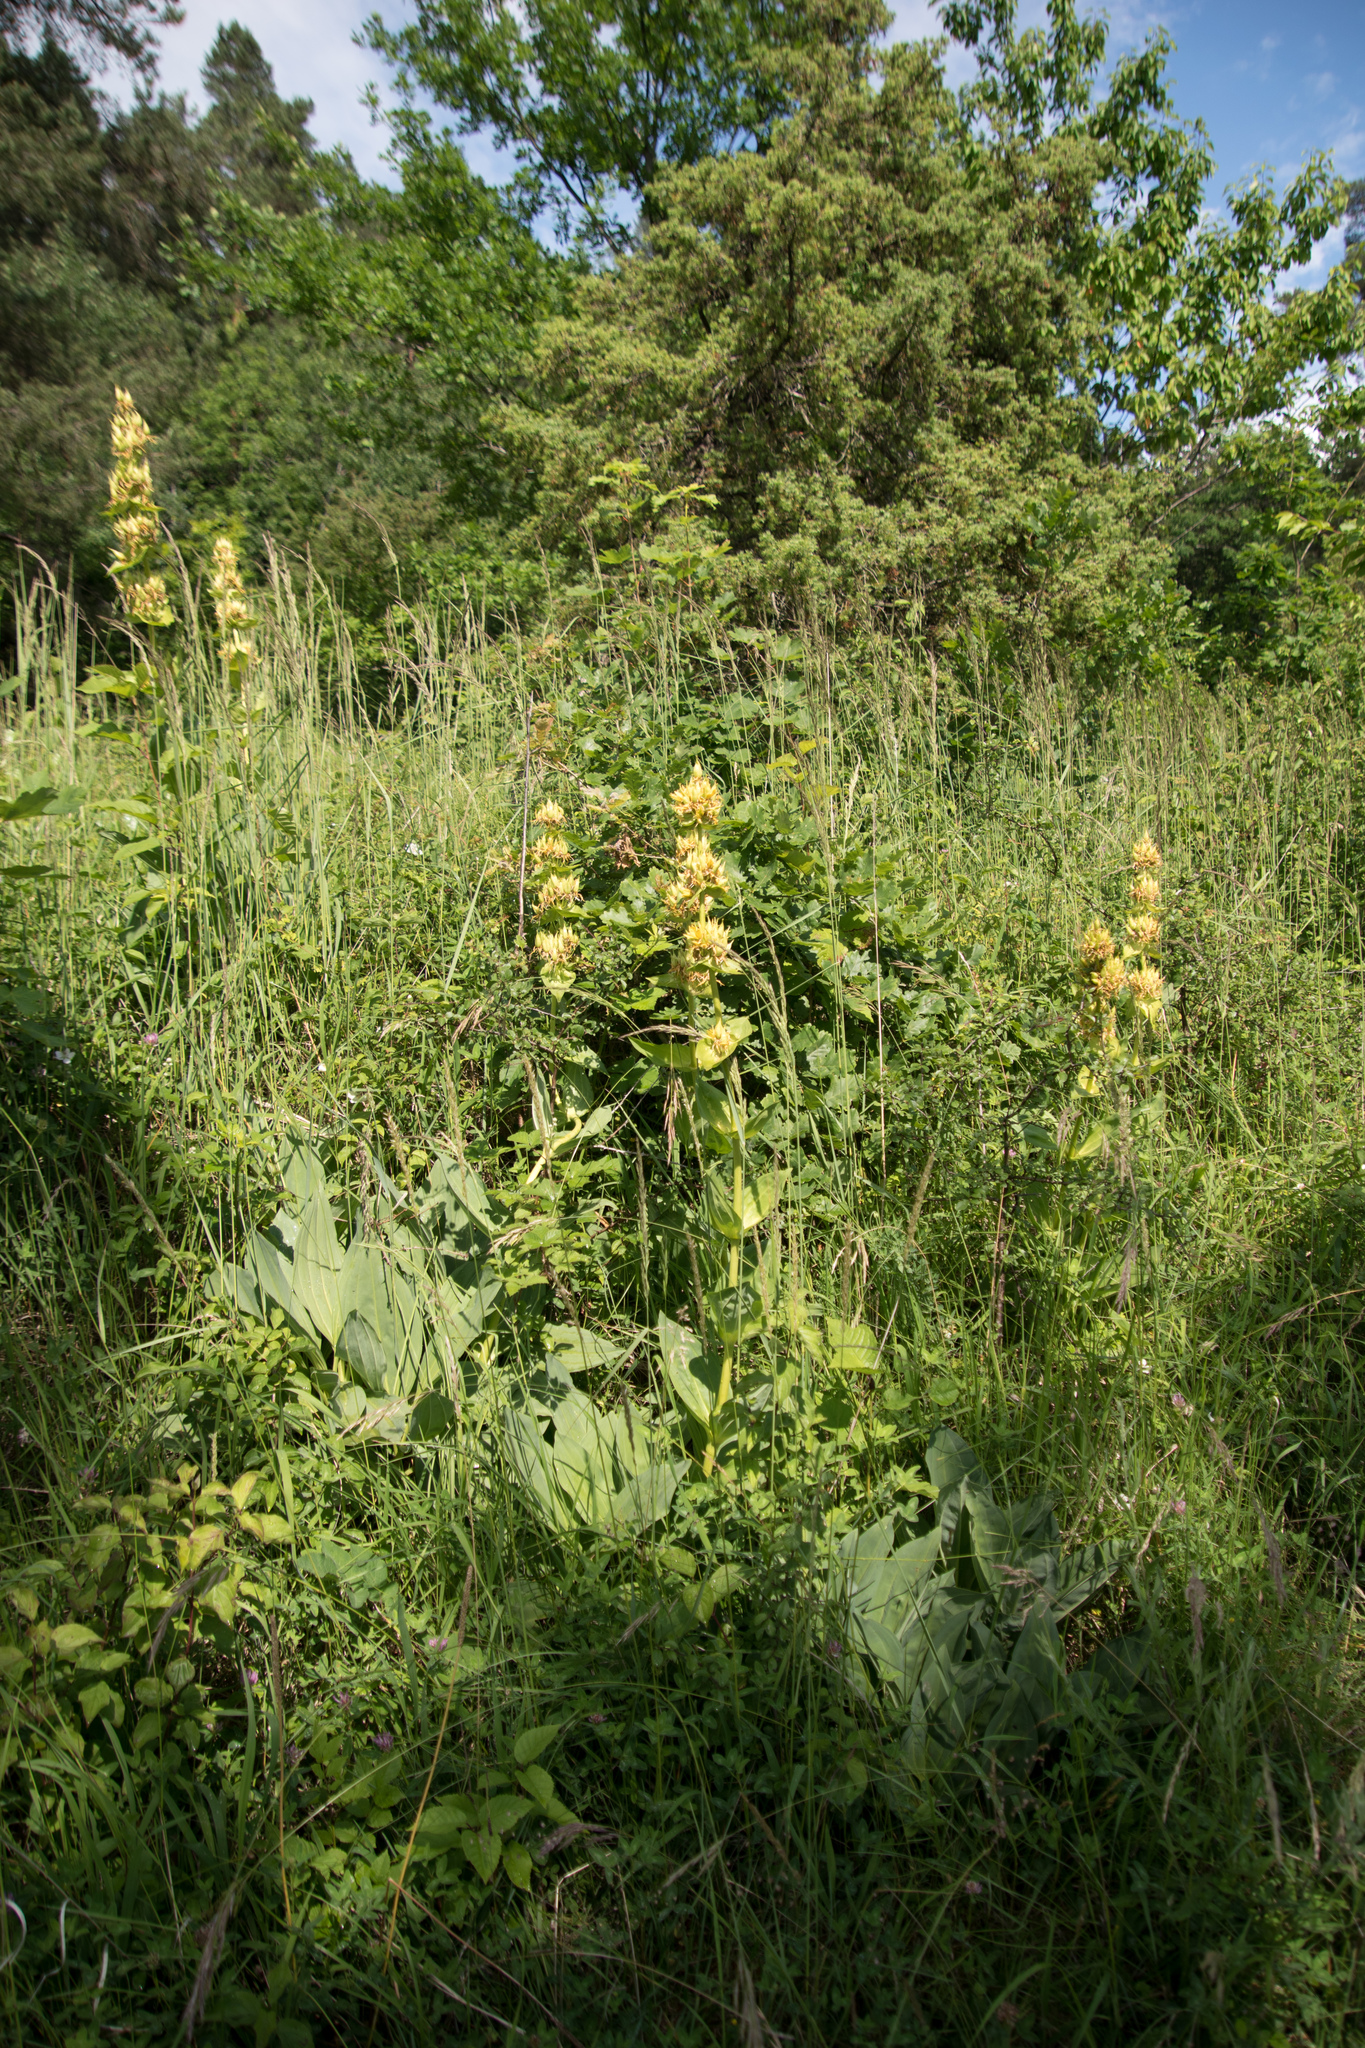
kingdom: Plantae
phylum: Tracheophyta
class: Magnoliopsida
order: Gentianales
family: Gentianaceae
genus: Gentiana
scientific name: Gentiana lutea
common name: Great yellow gentian
